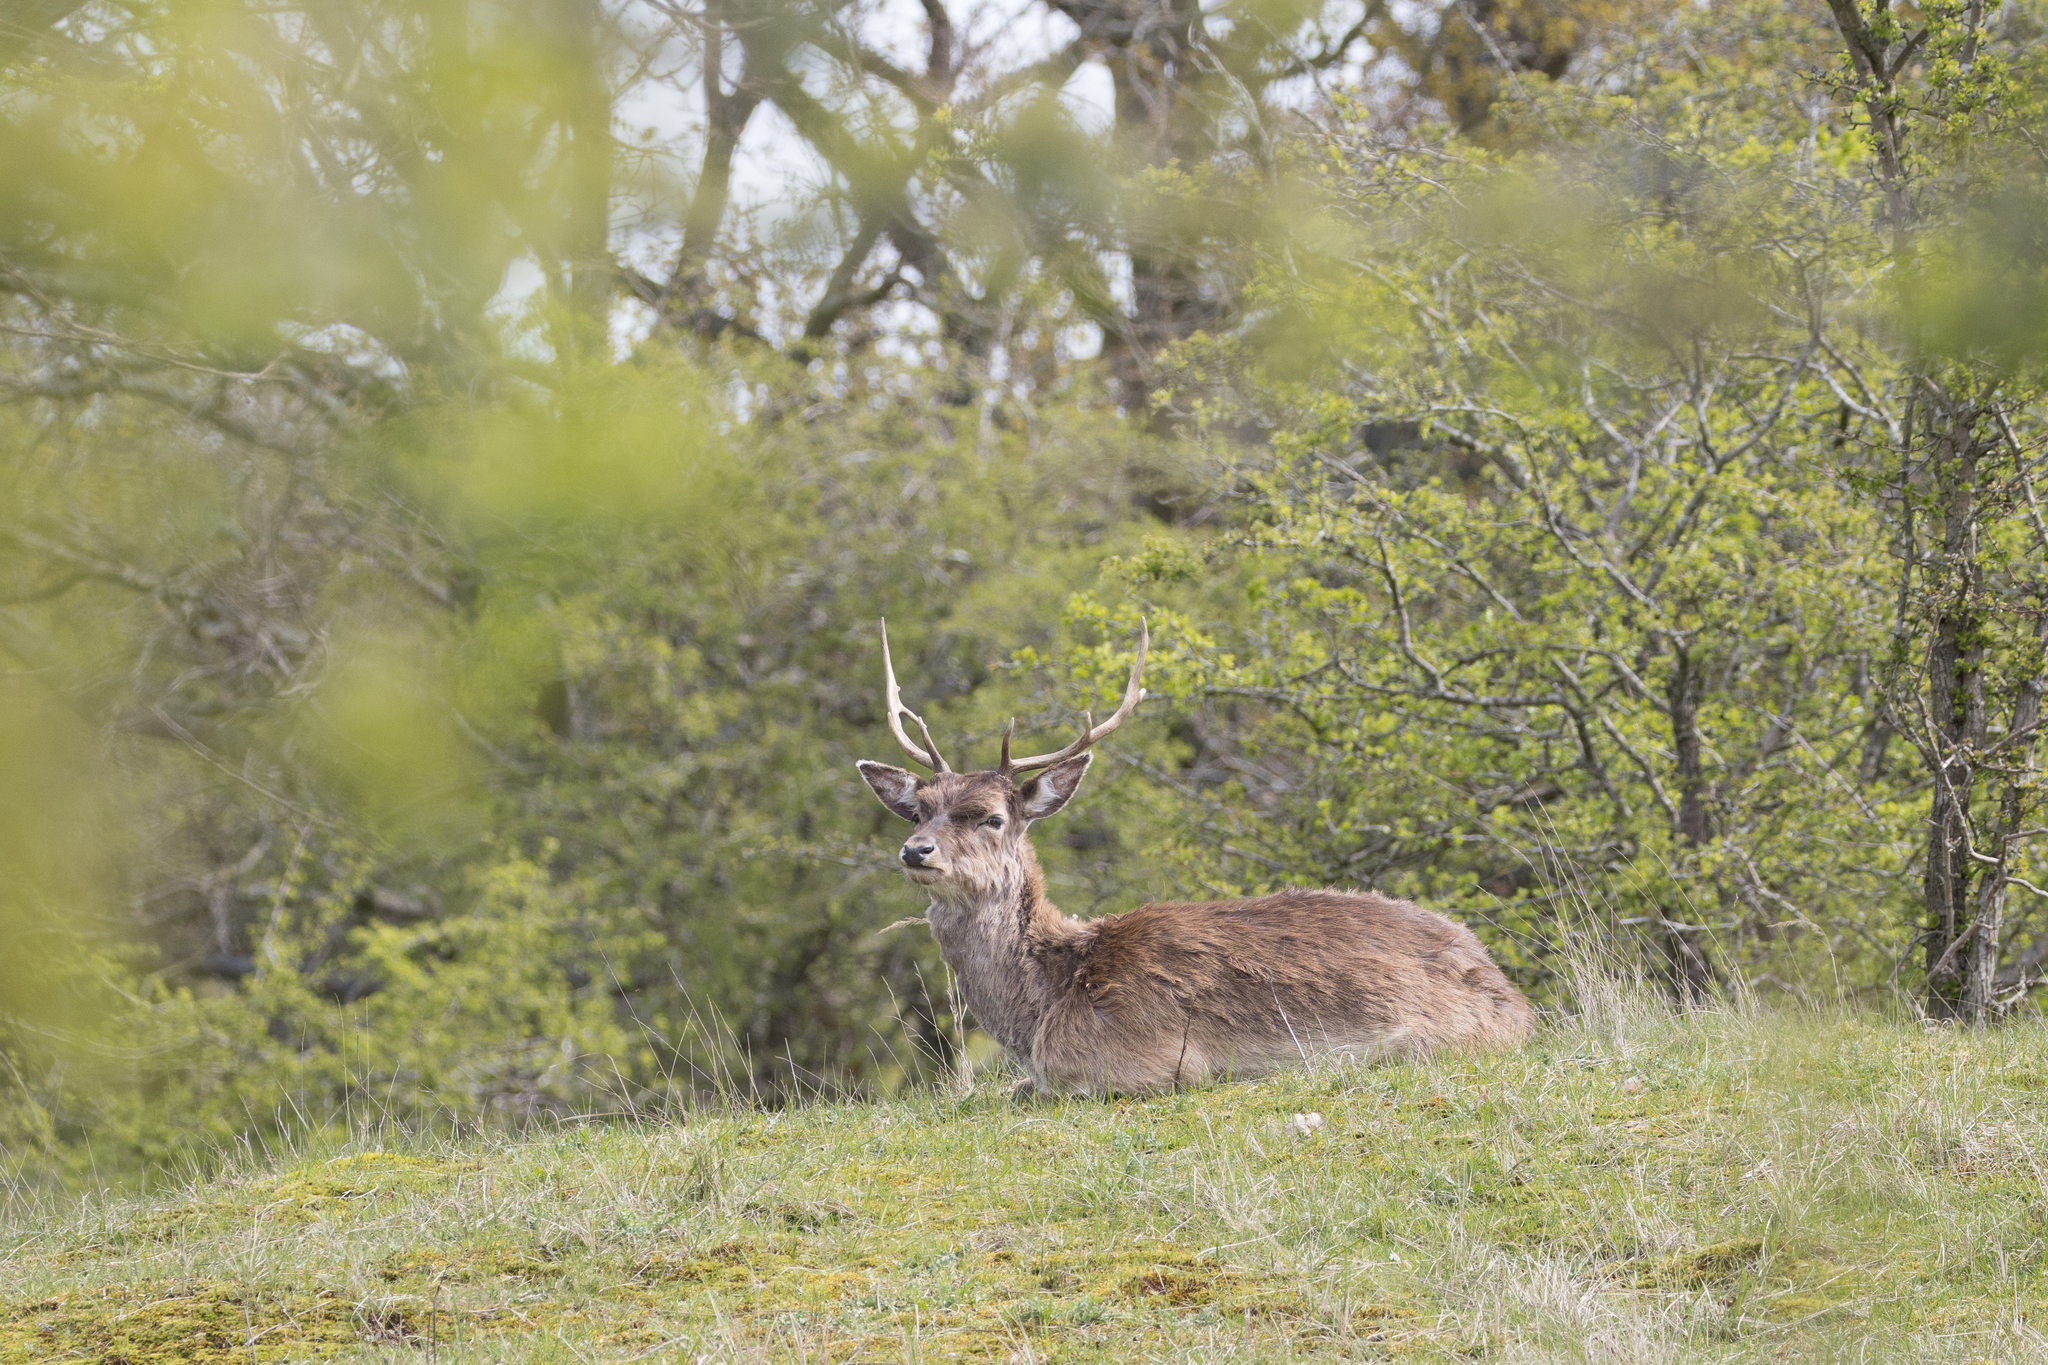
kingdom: Animalia
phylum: Chordata
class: Mammalia
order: Artiodactyla
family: Cervidae
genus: Dama
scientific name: Dama dama
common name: Fallow deer
